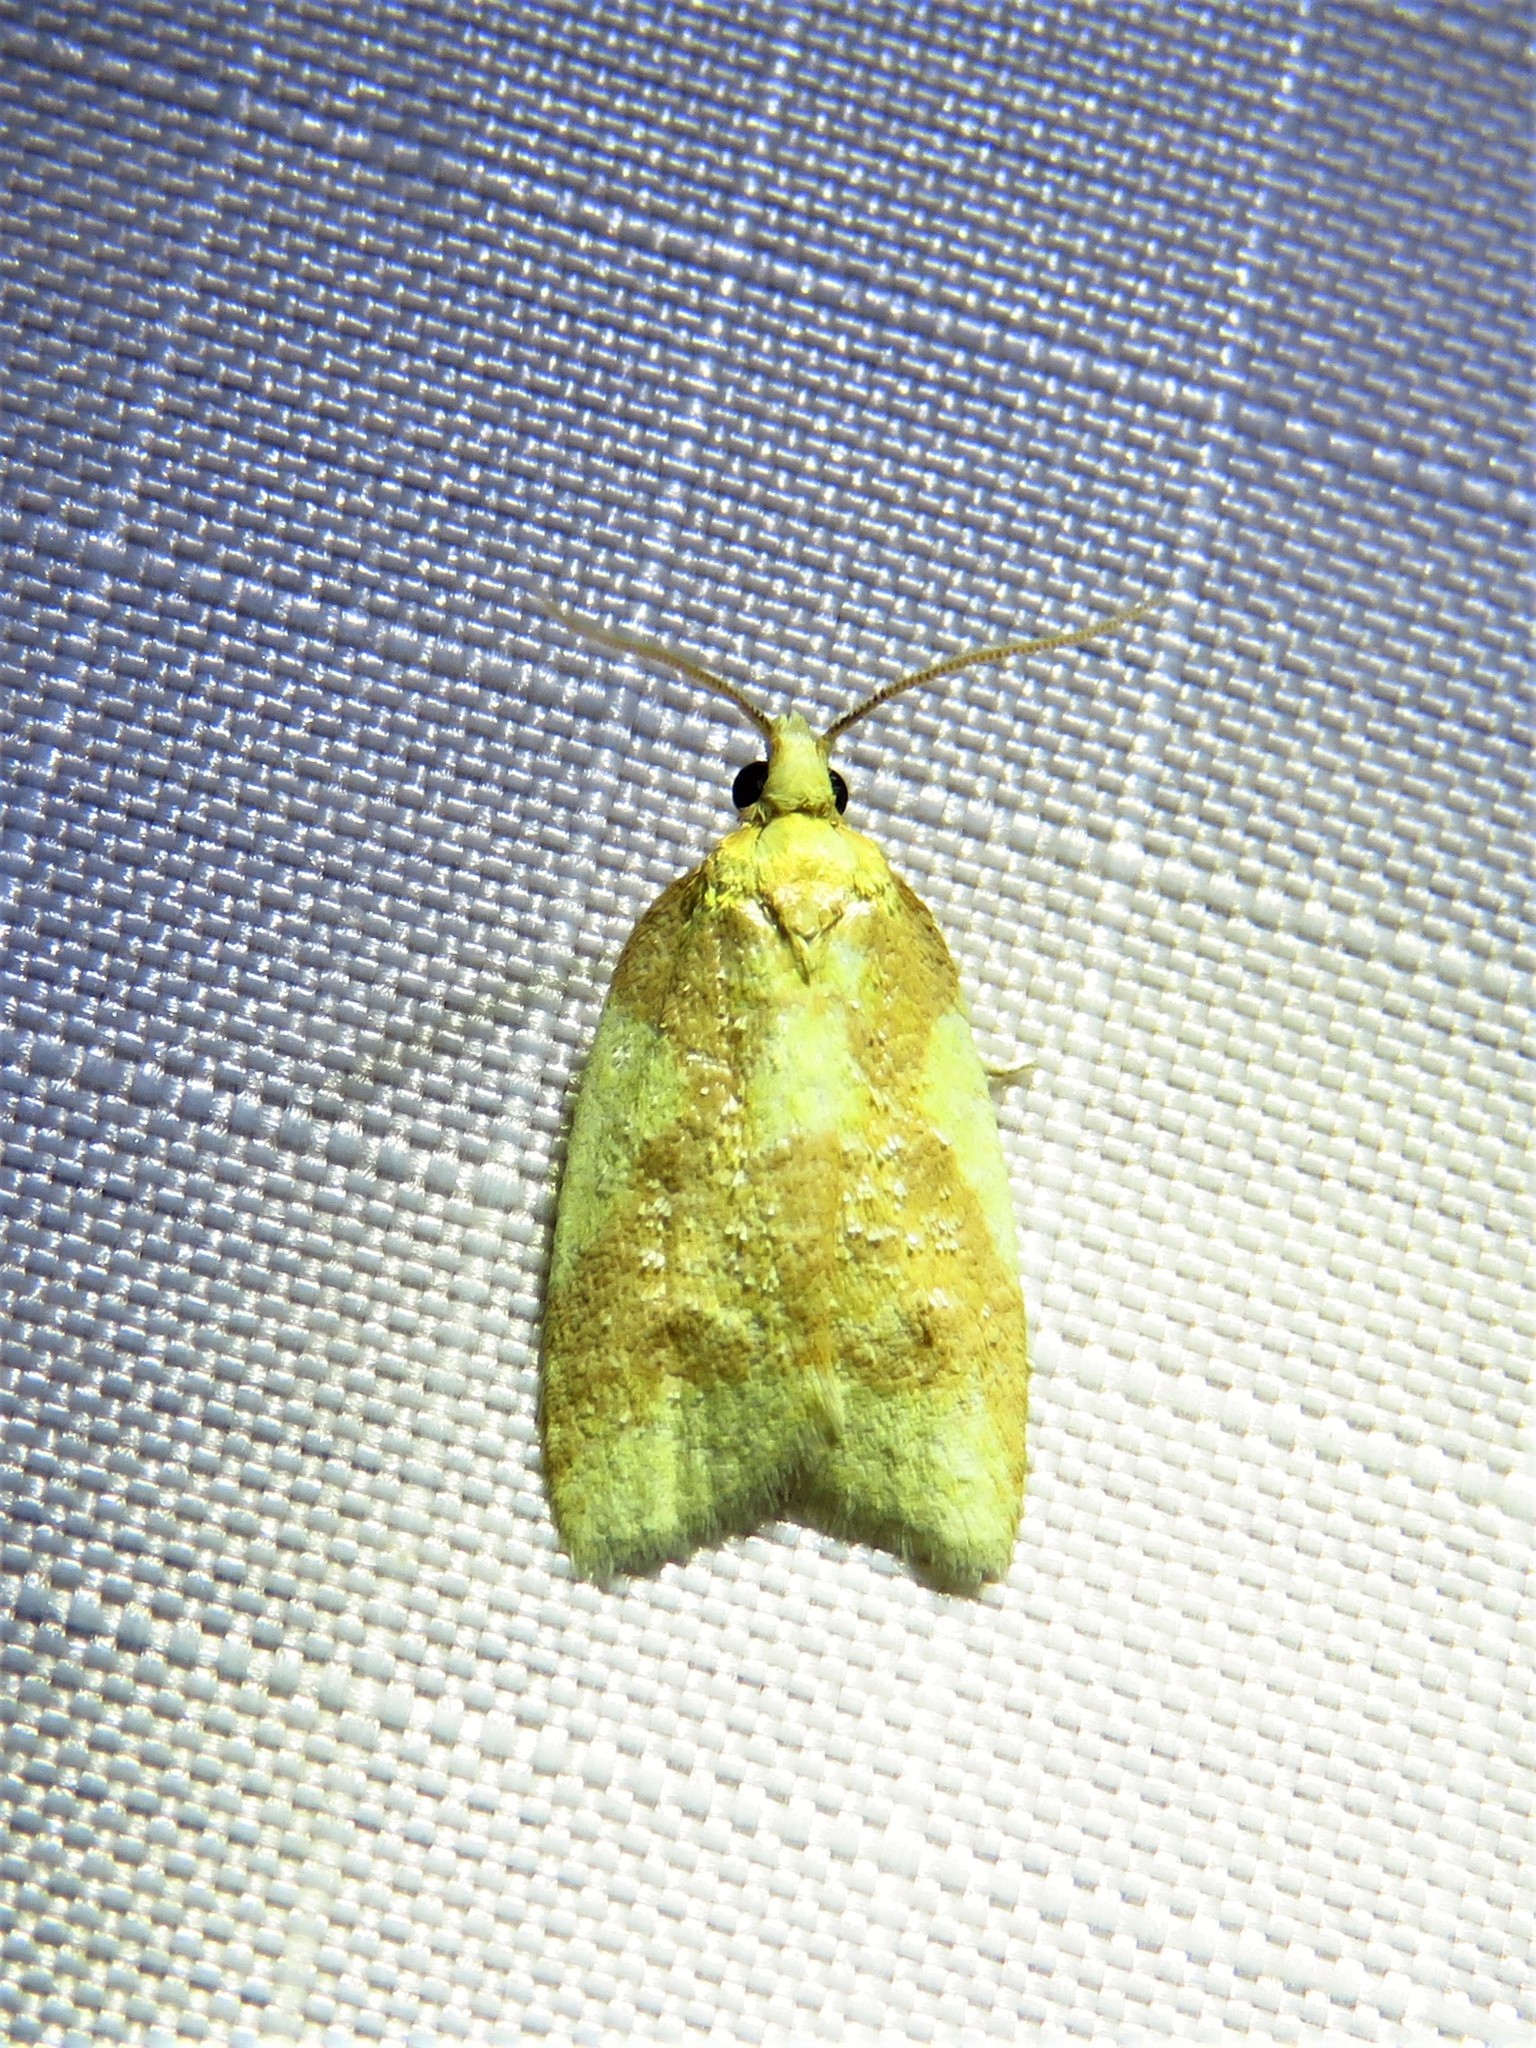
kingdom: Animalia
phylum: Arthropoda
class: Insecta
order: Lepidoptera
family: Tortricidae
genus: Sparganothis
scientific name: Sparganothis pulcherrimana
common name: Beautiful sparganothis
